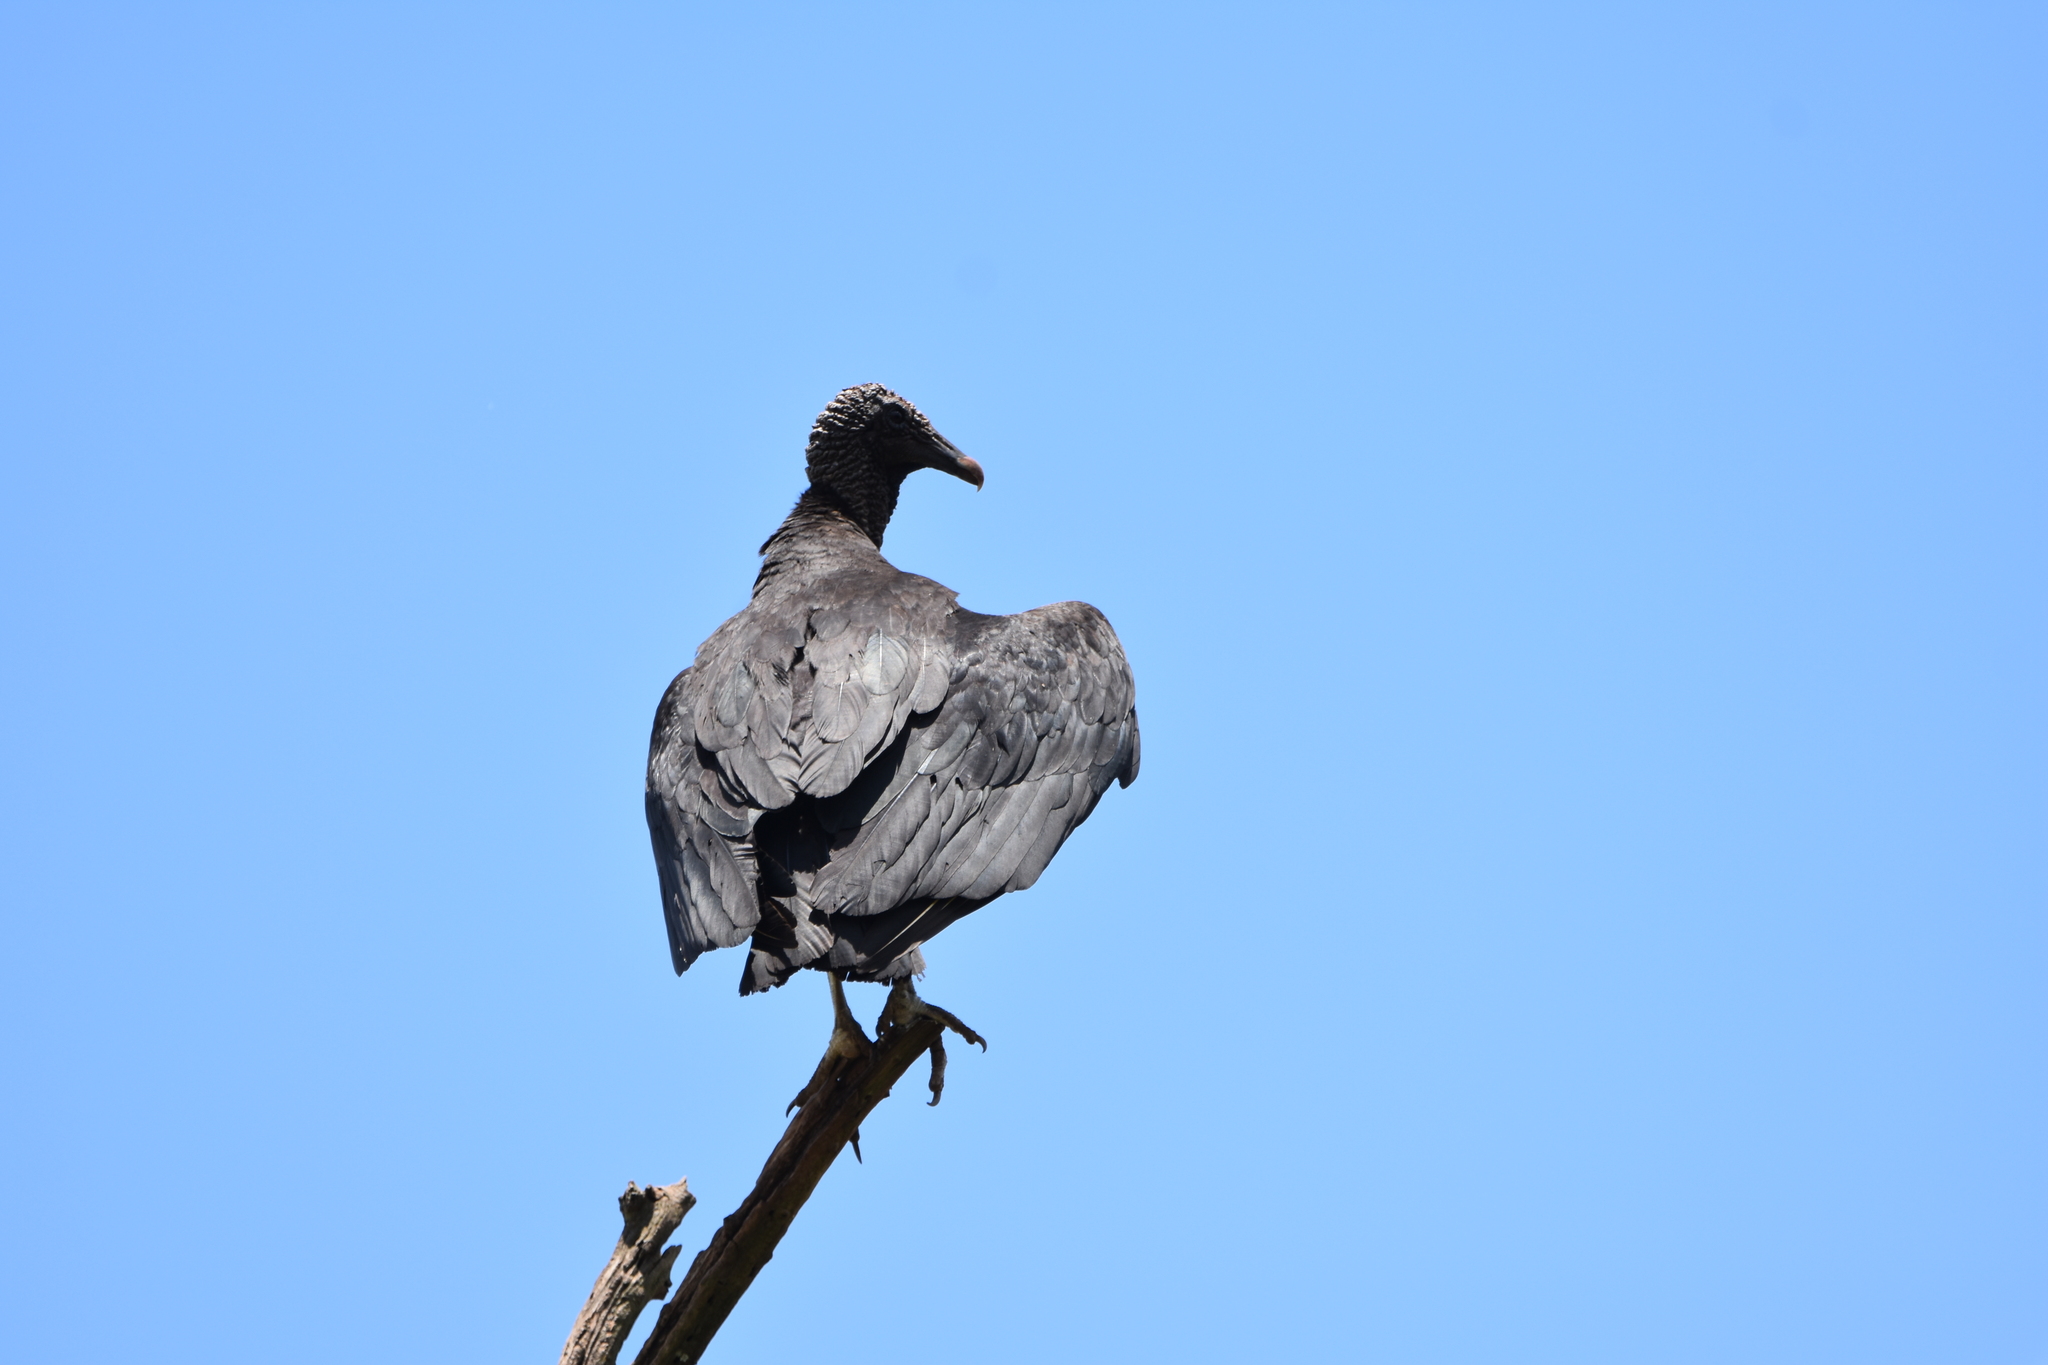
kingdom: Animalia
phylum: Chordata
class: Aves
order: Accipitriformes
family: Cathartidae
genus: Coragyps
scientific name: Coragyps atratus
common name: Black vulture
